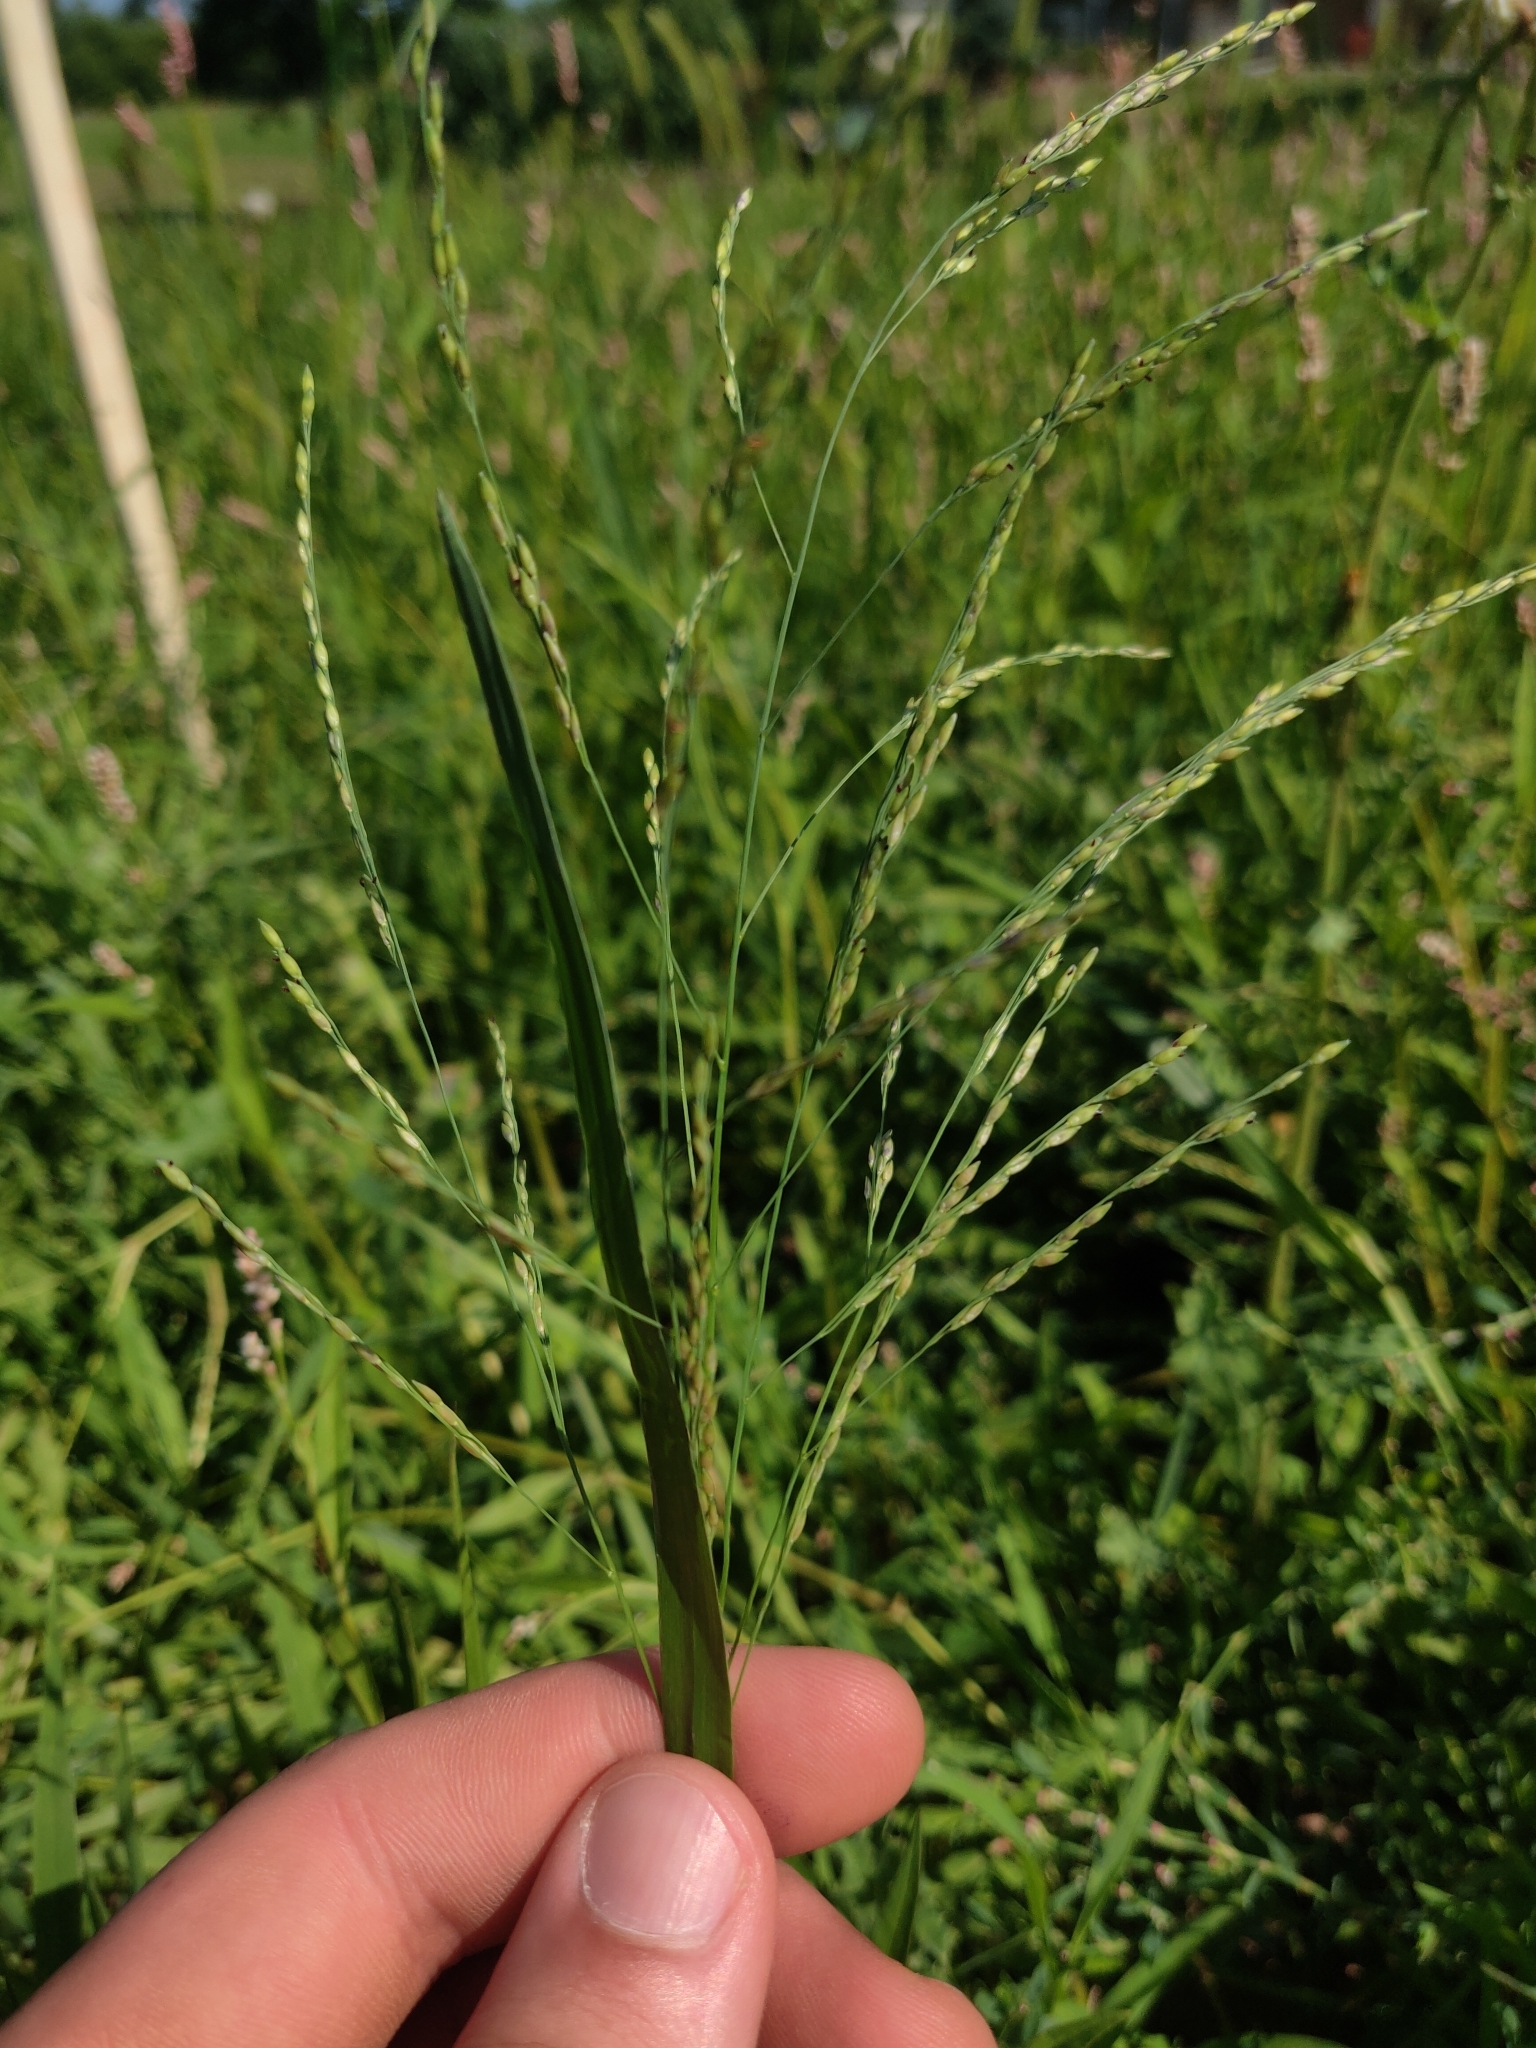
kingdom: Plantae
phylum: Tracheophyta
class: Liliopsida
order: Poales
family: Poaceae
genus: Panicum
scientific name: Panicum dichotomiflorum
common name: Autumn millet
